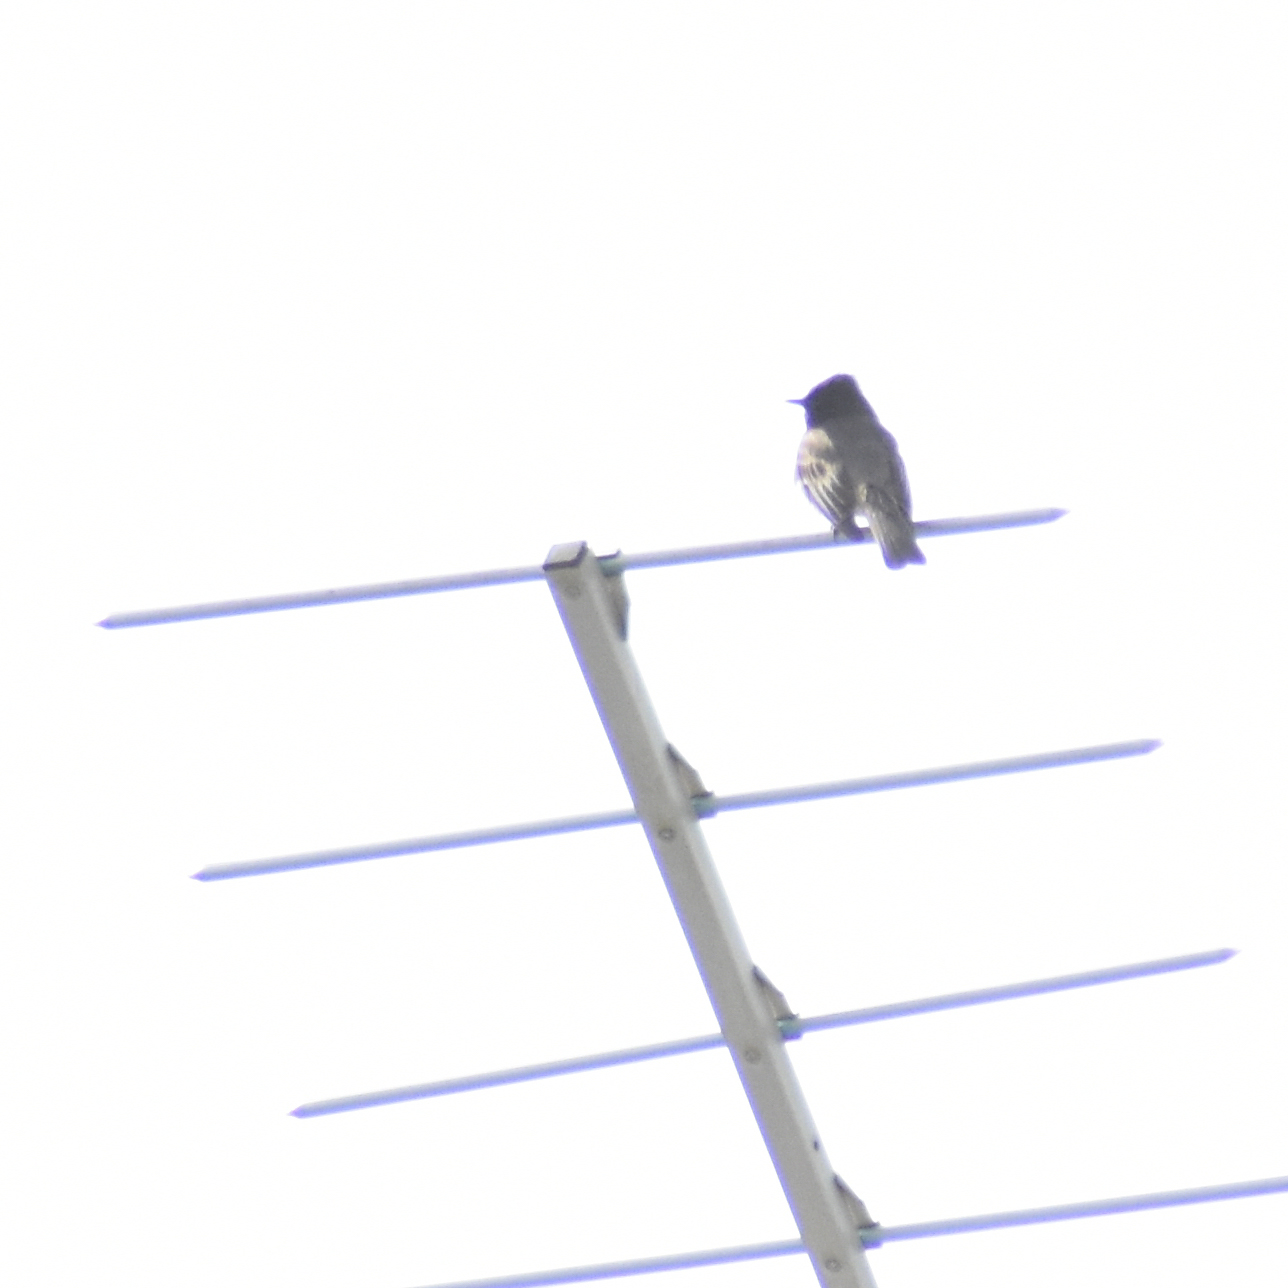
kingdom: Animalia
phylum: Chordata
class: Aves
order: Passeriformes
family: Tyrannidae
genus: Sayornis
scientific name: Sayornis nigricans
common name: Black phoebe
